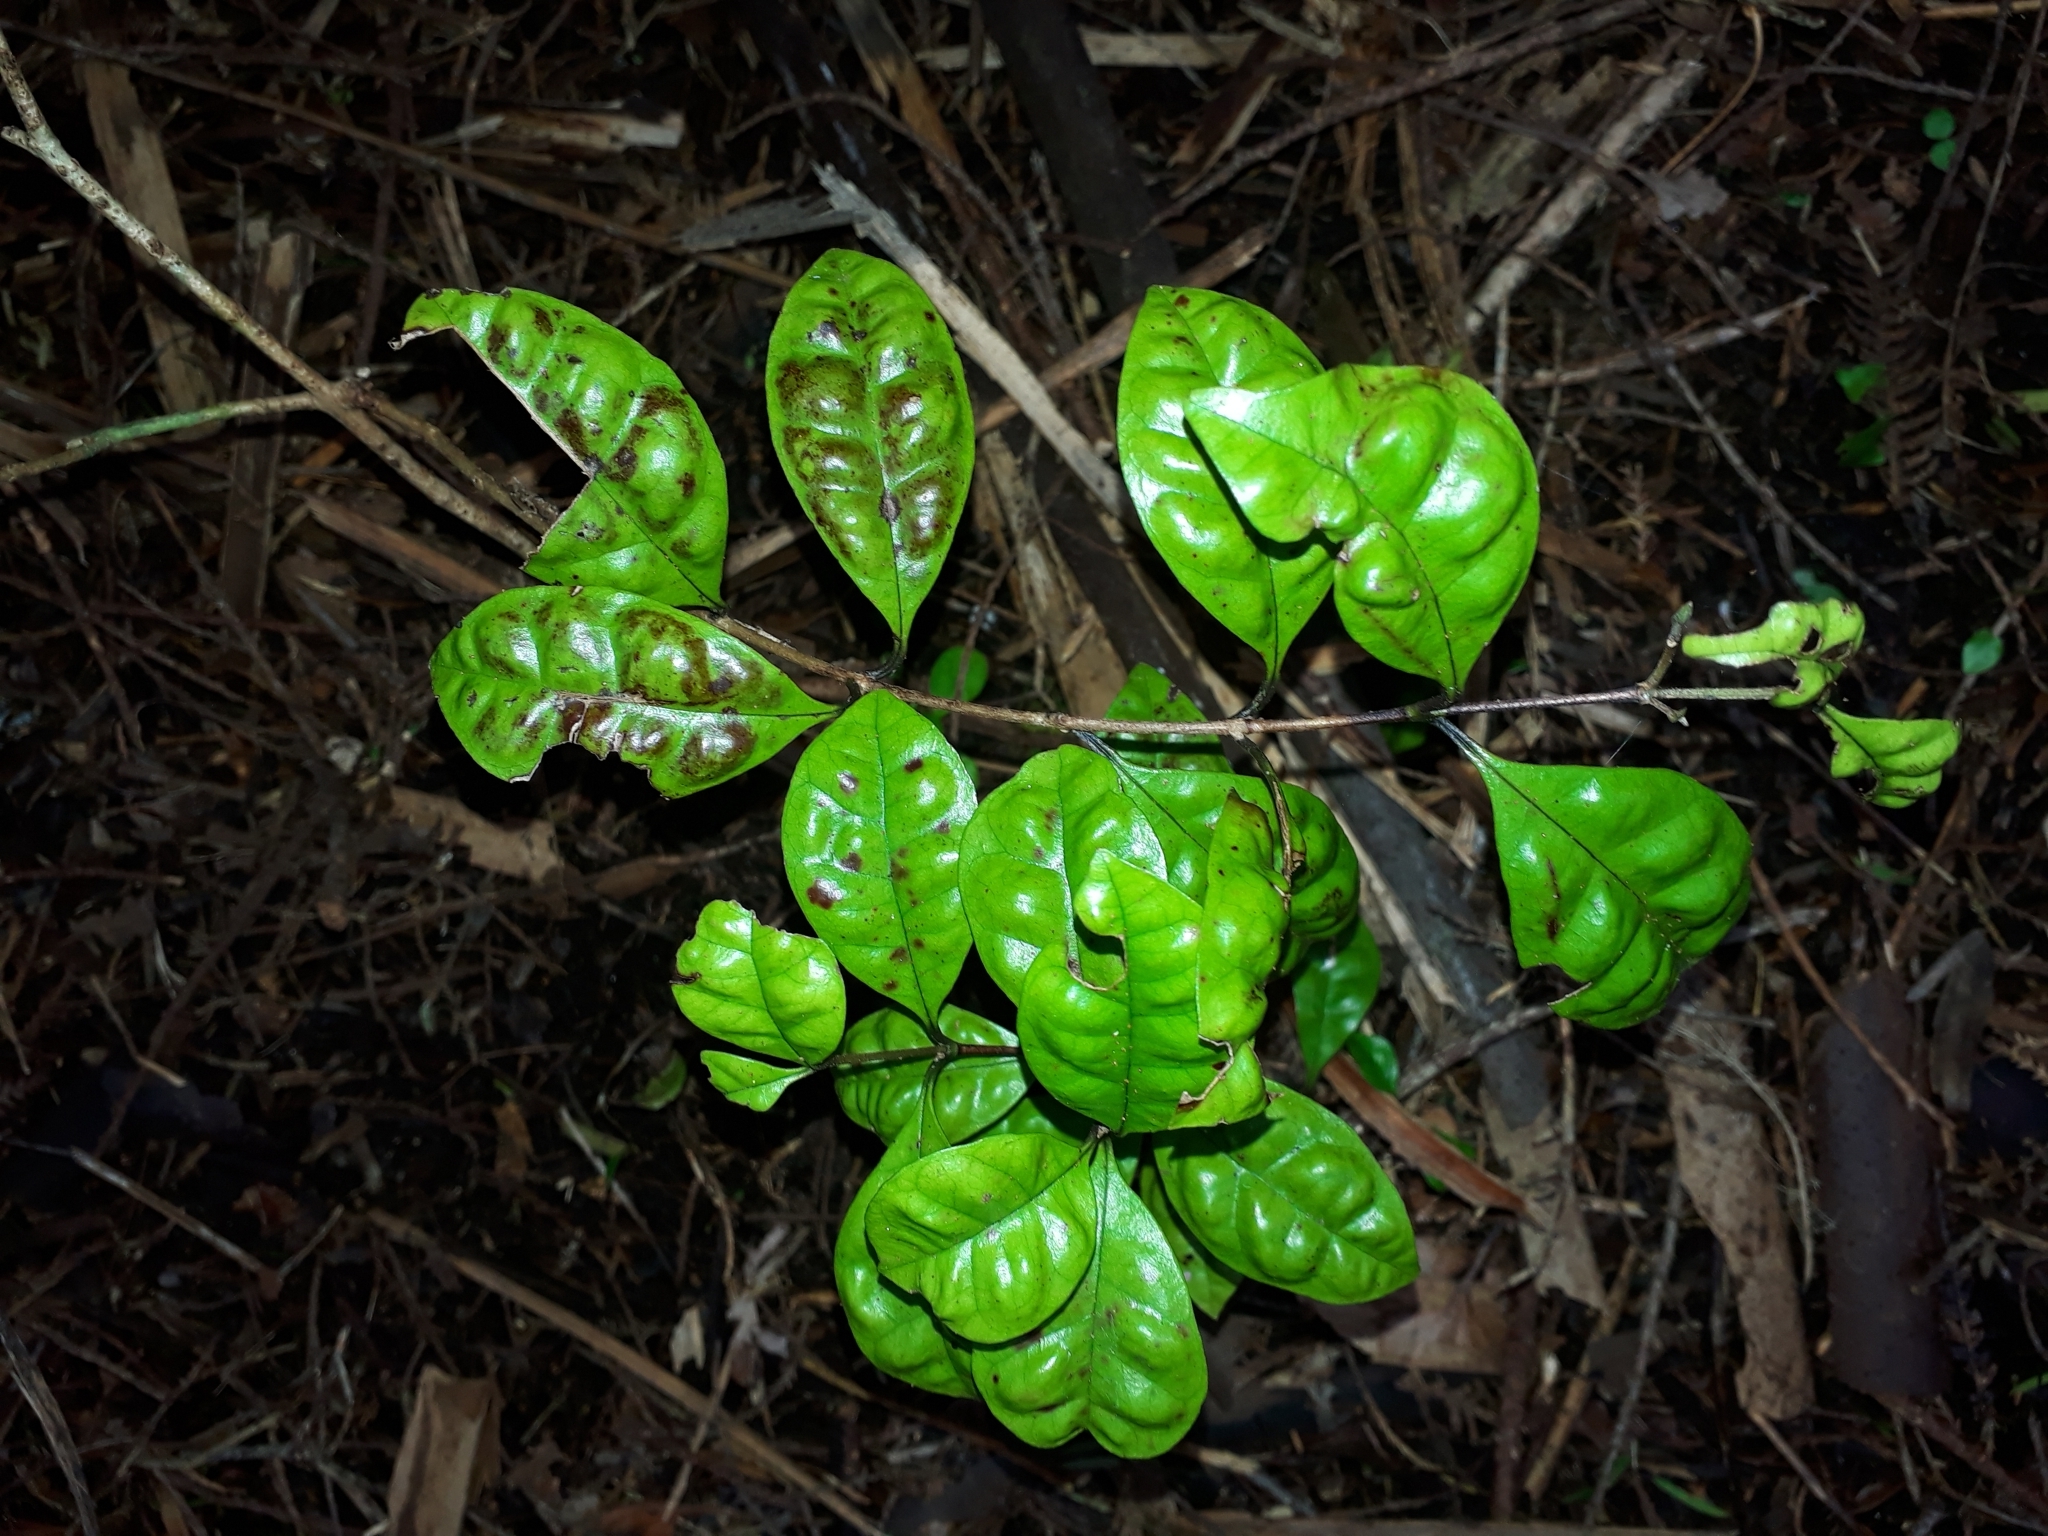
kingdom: Plantae
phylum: Tracheophyta
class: Magnoliopsida
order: Myrtales
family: Myrtaceae
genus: Lophomyrtus
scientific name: Lophomyrtus bullata
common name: Rama rama
